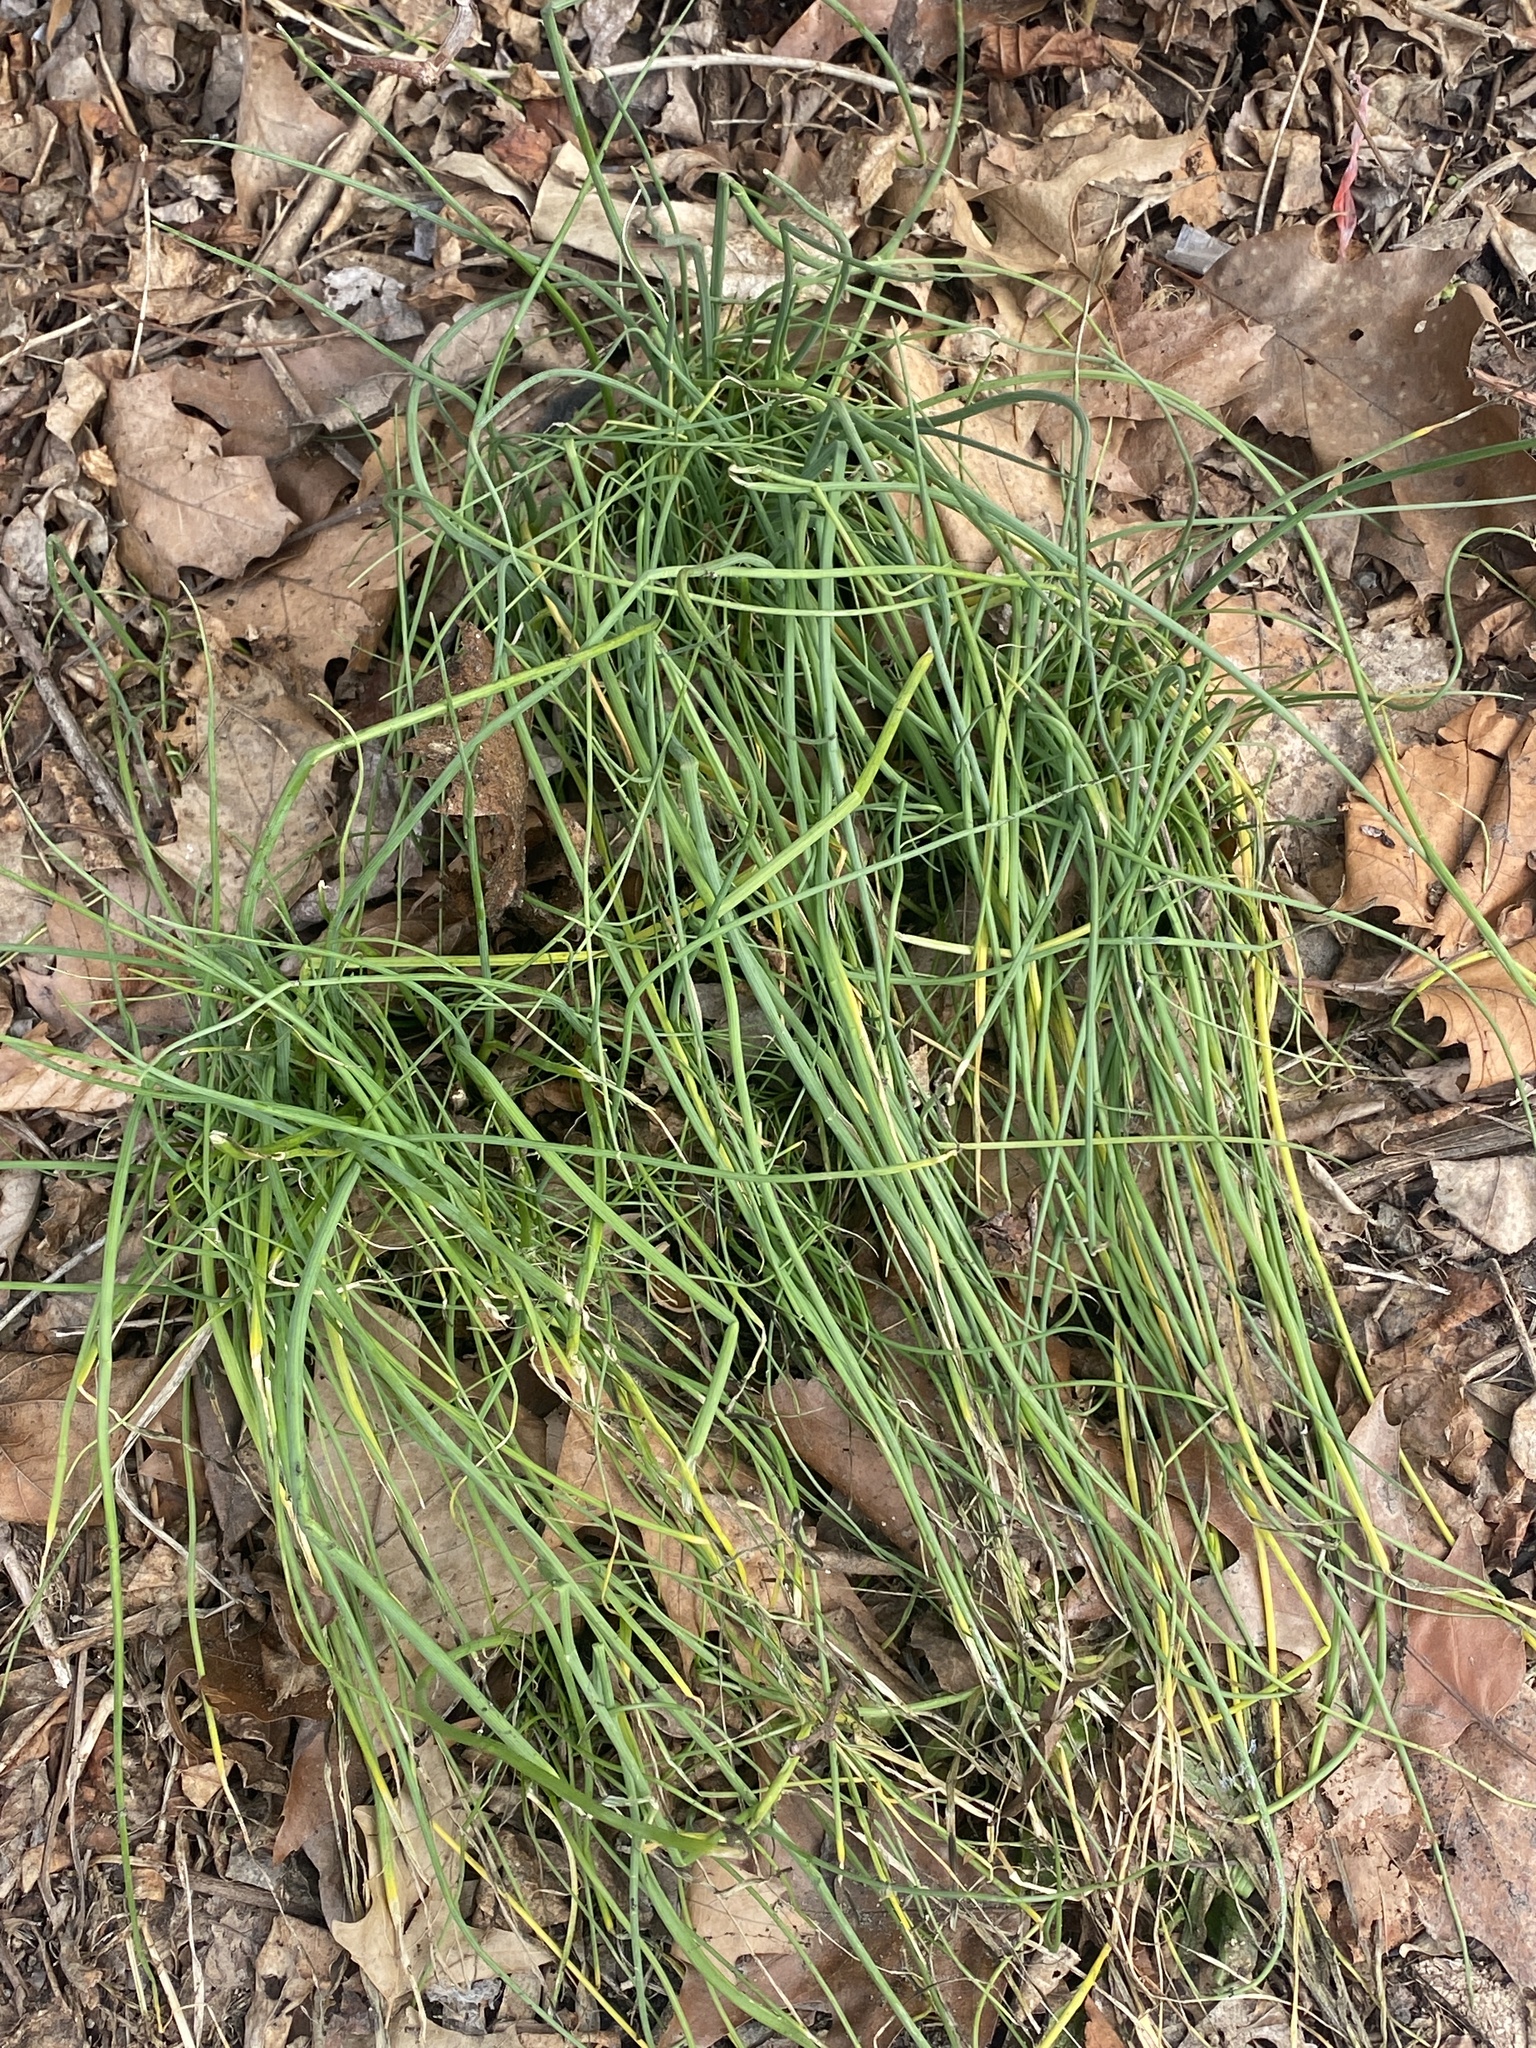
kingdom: Plantae
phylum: Tracheophyta
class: Liliopsida
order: Asparagales
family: Amaryllidaceae
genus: Allium
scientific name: Allium vineale
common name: Crow garlic
